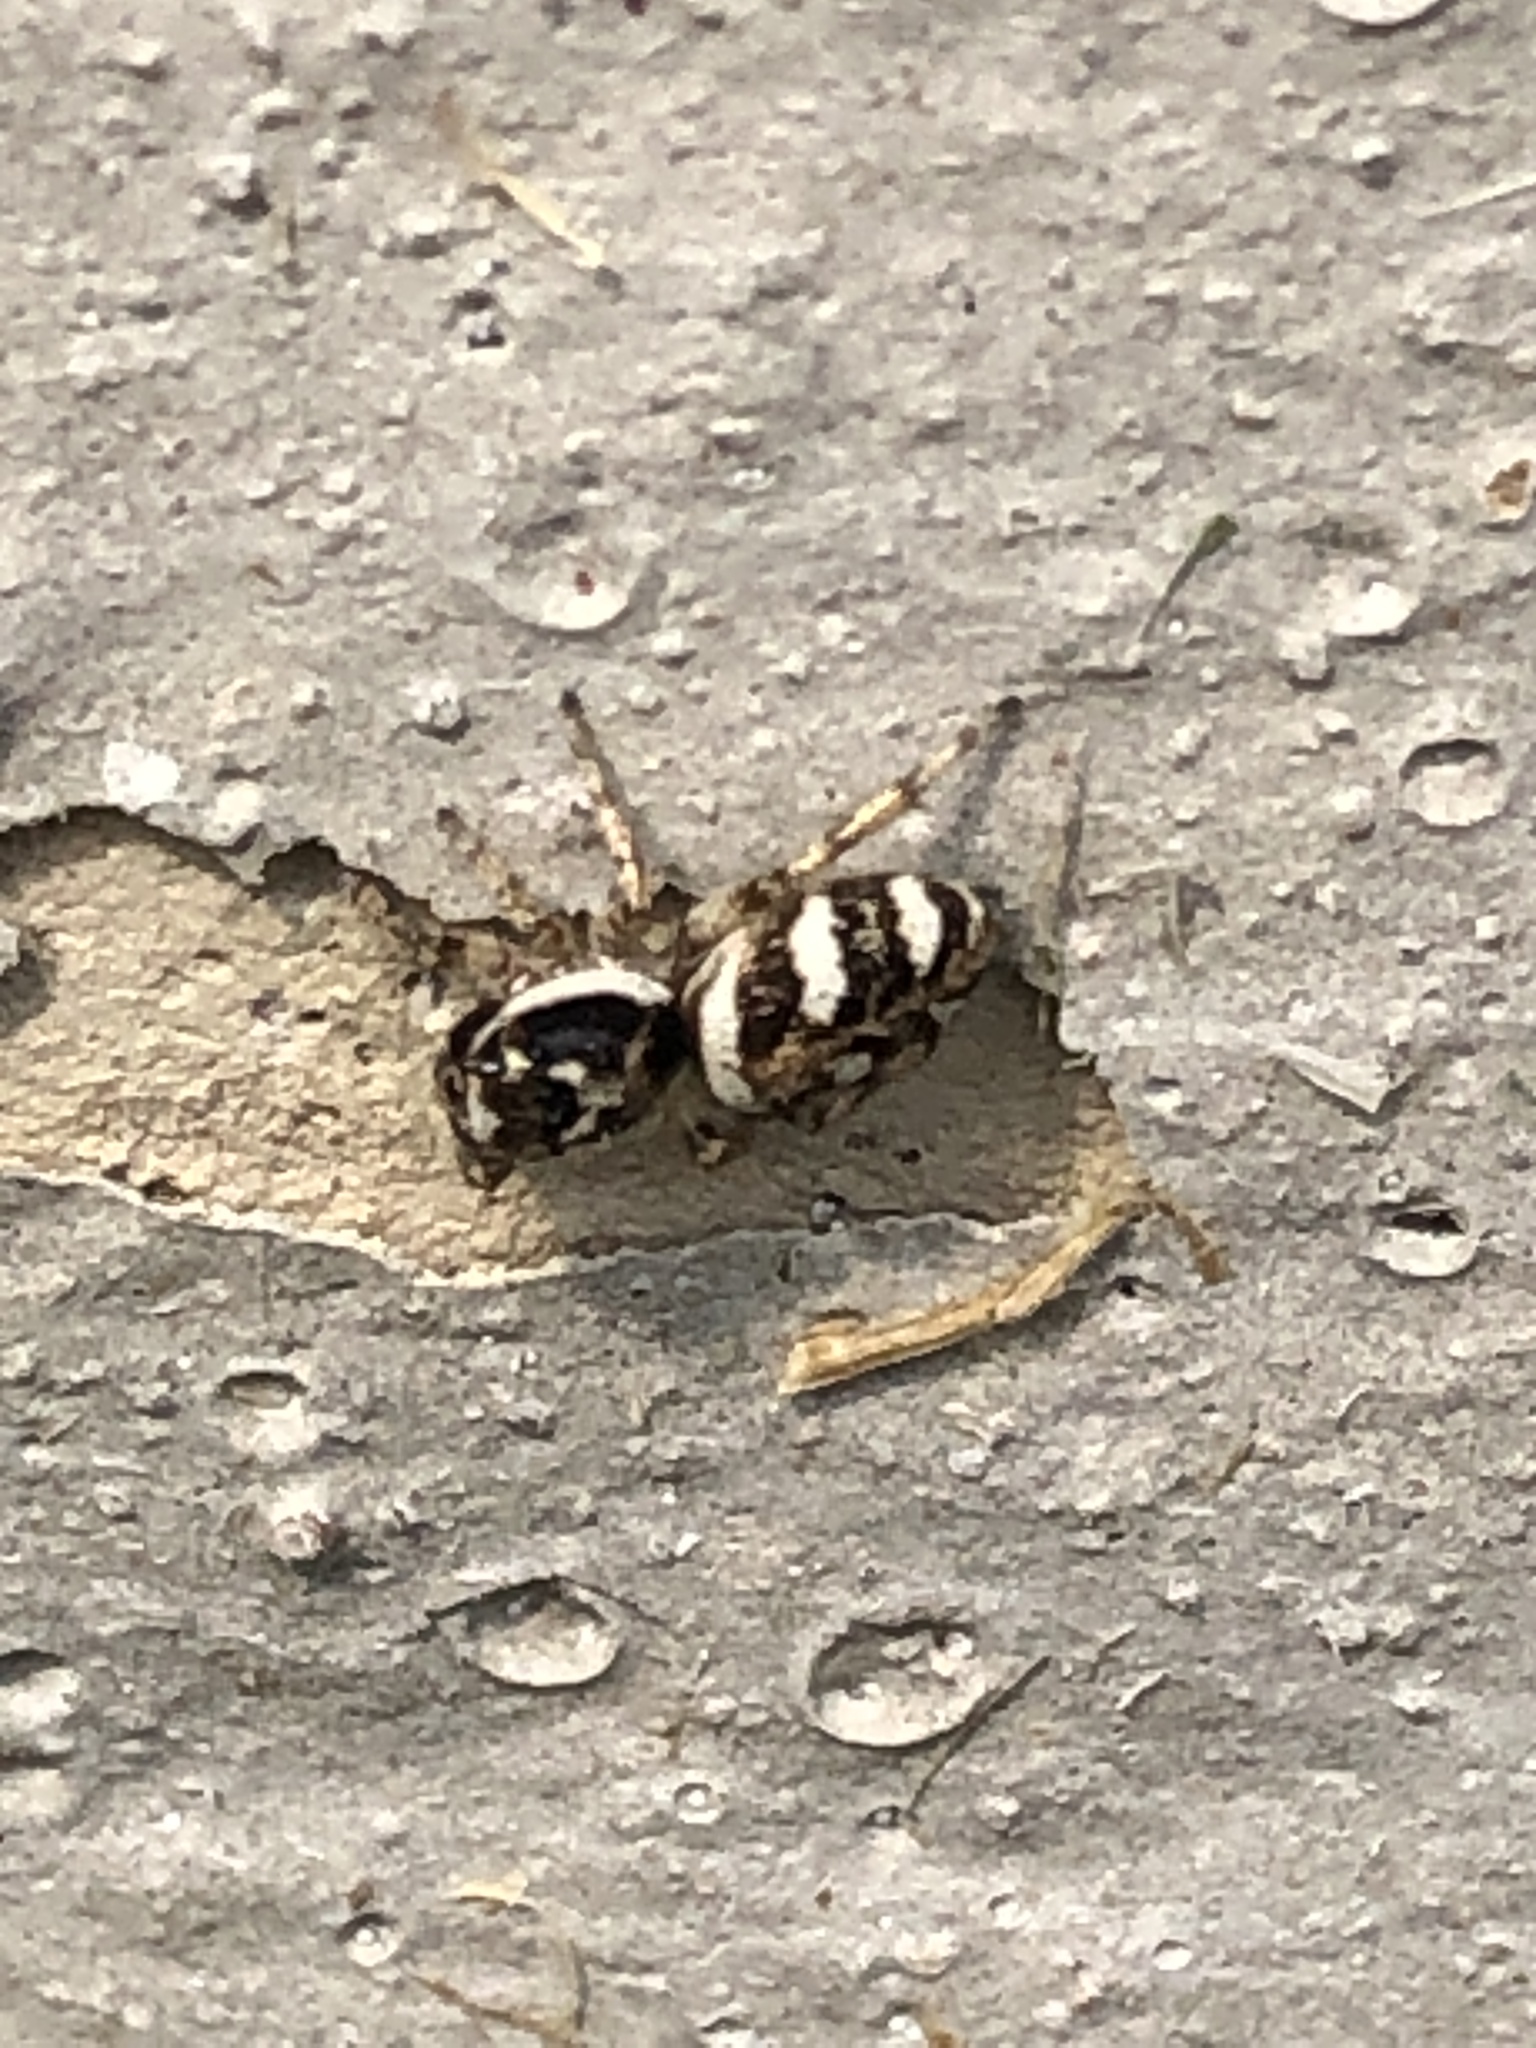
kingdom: Animalia
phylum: Arthropoda
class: Arachnida
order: Araneae
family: Salticidae
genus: Salticus
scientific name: Salticus scenicus
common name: Zebra jumper
